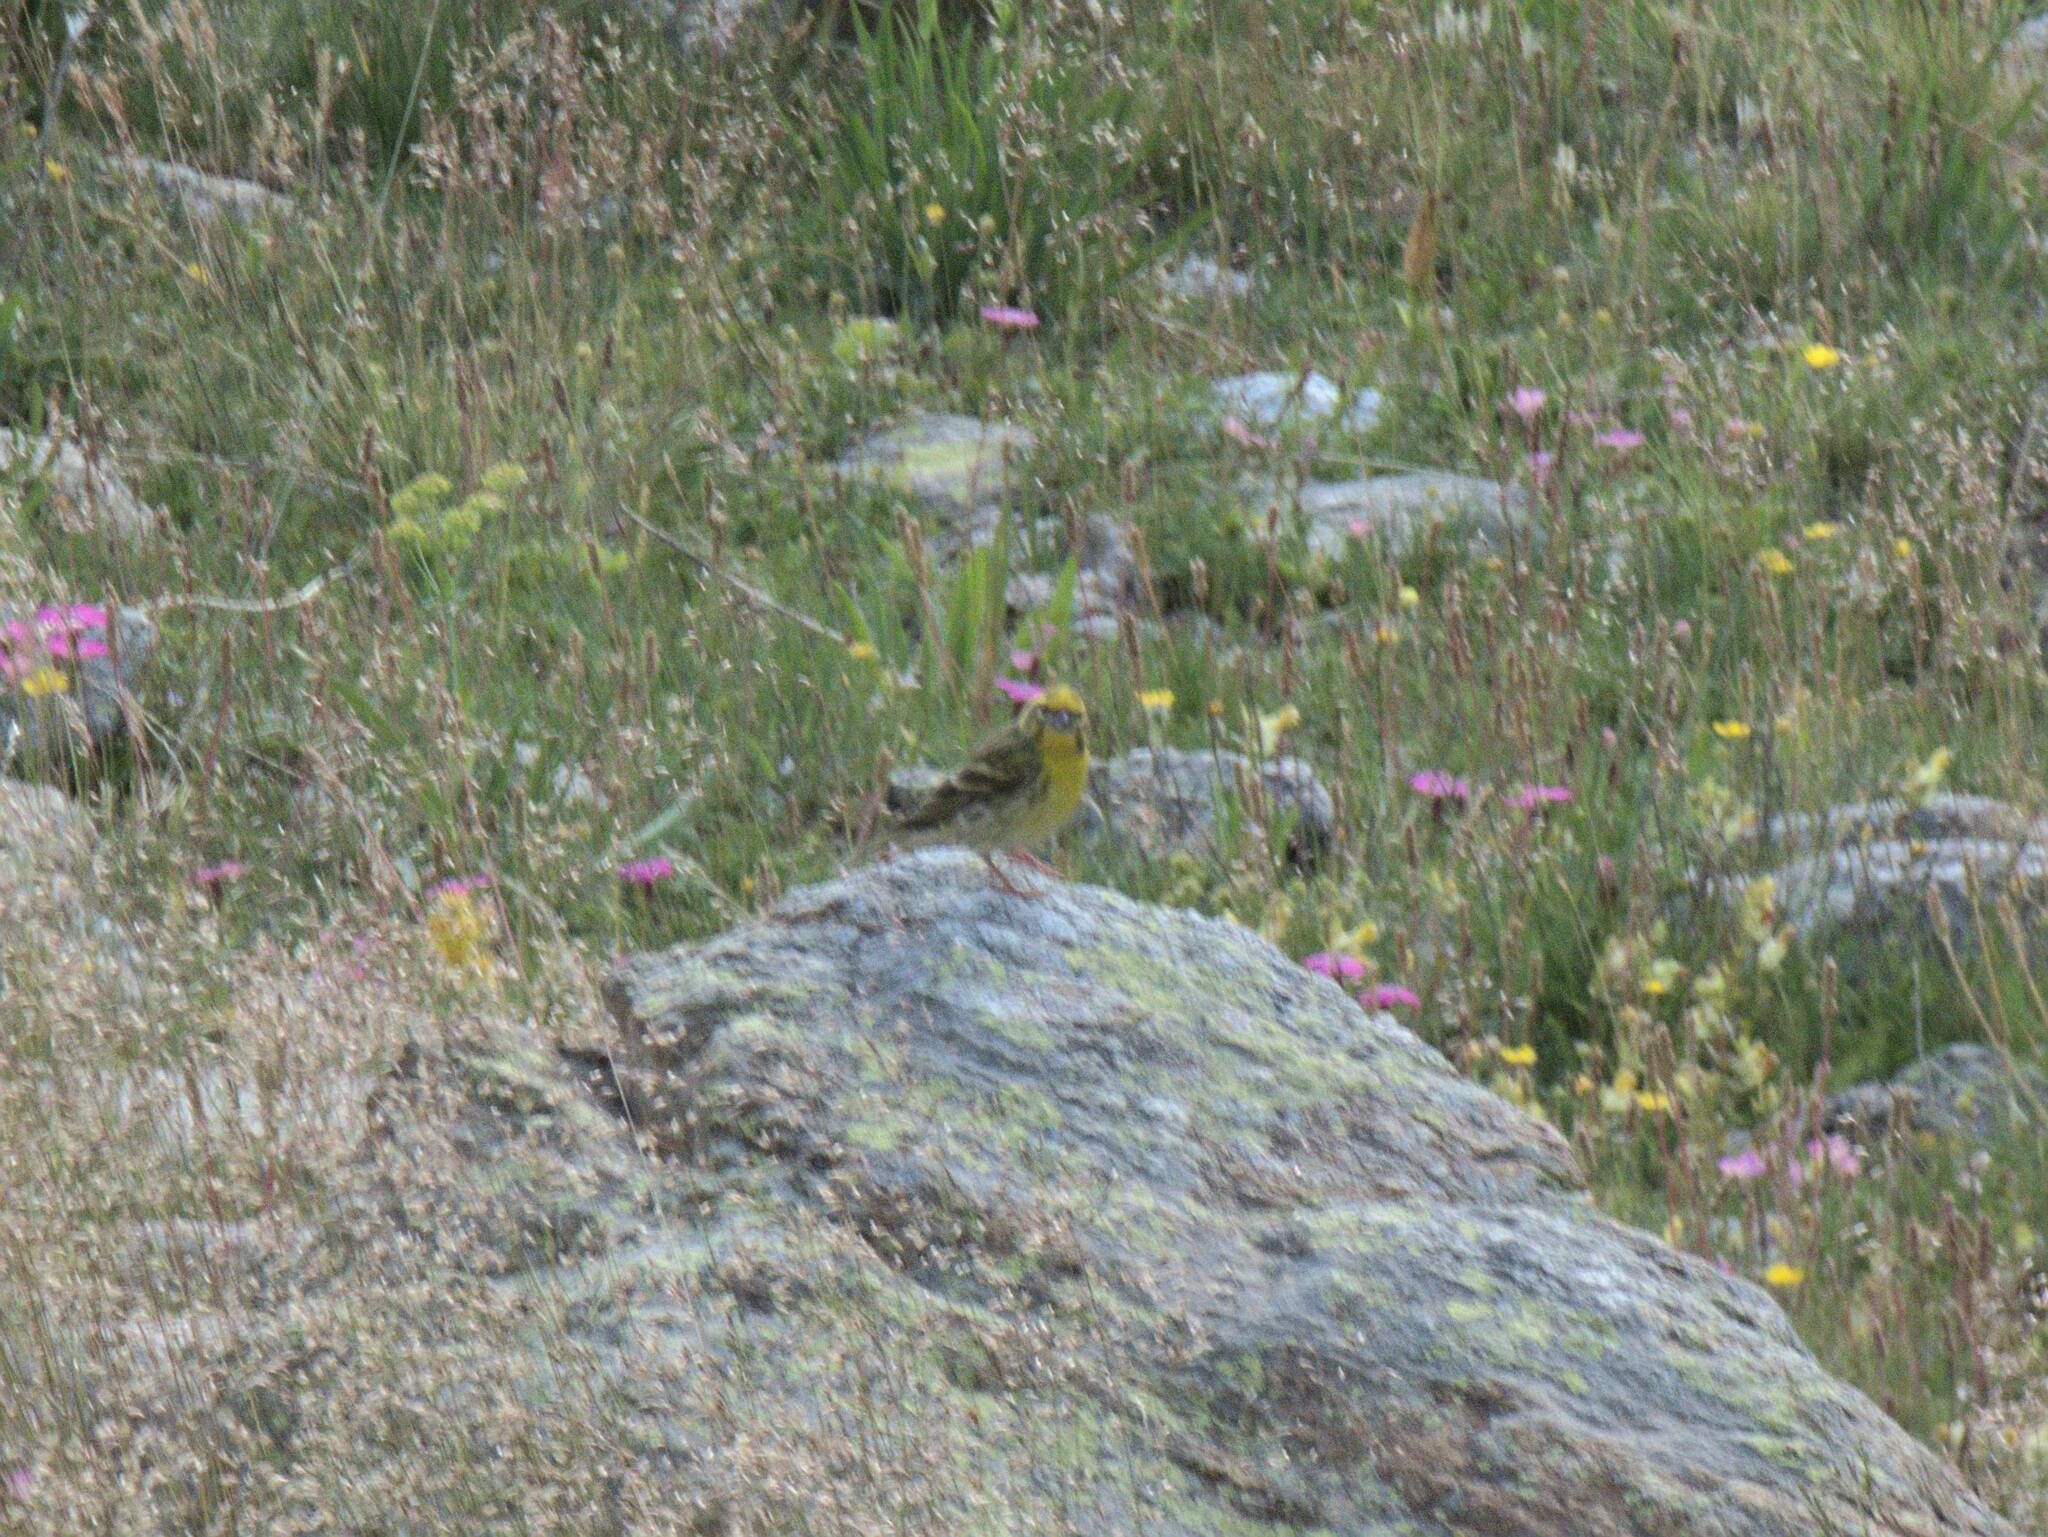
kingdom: Animalia
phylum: Chordata
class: Aves
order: Passeriformes
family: Fringillidae
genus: Serinus
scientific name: Serinus serinus
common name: European serin
